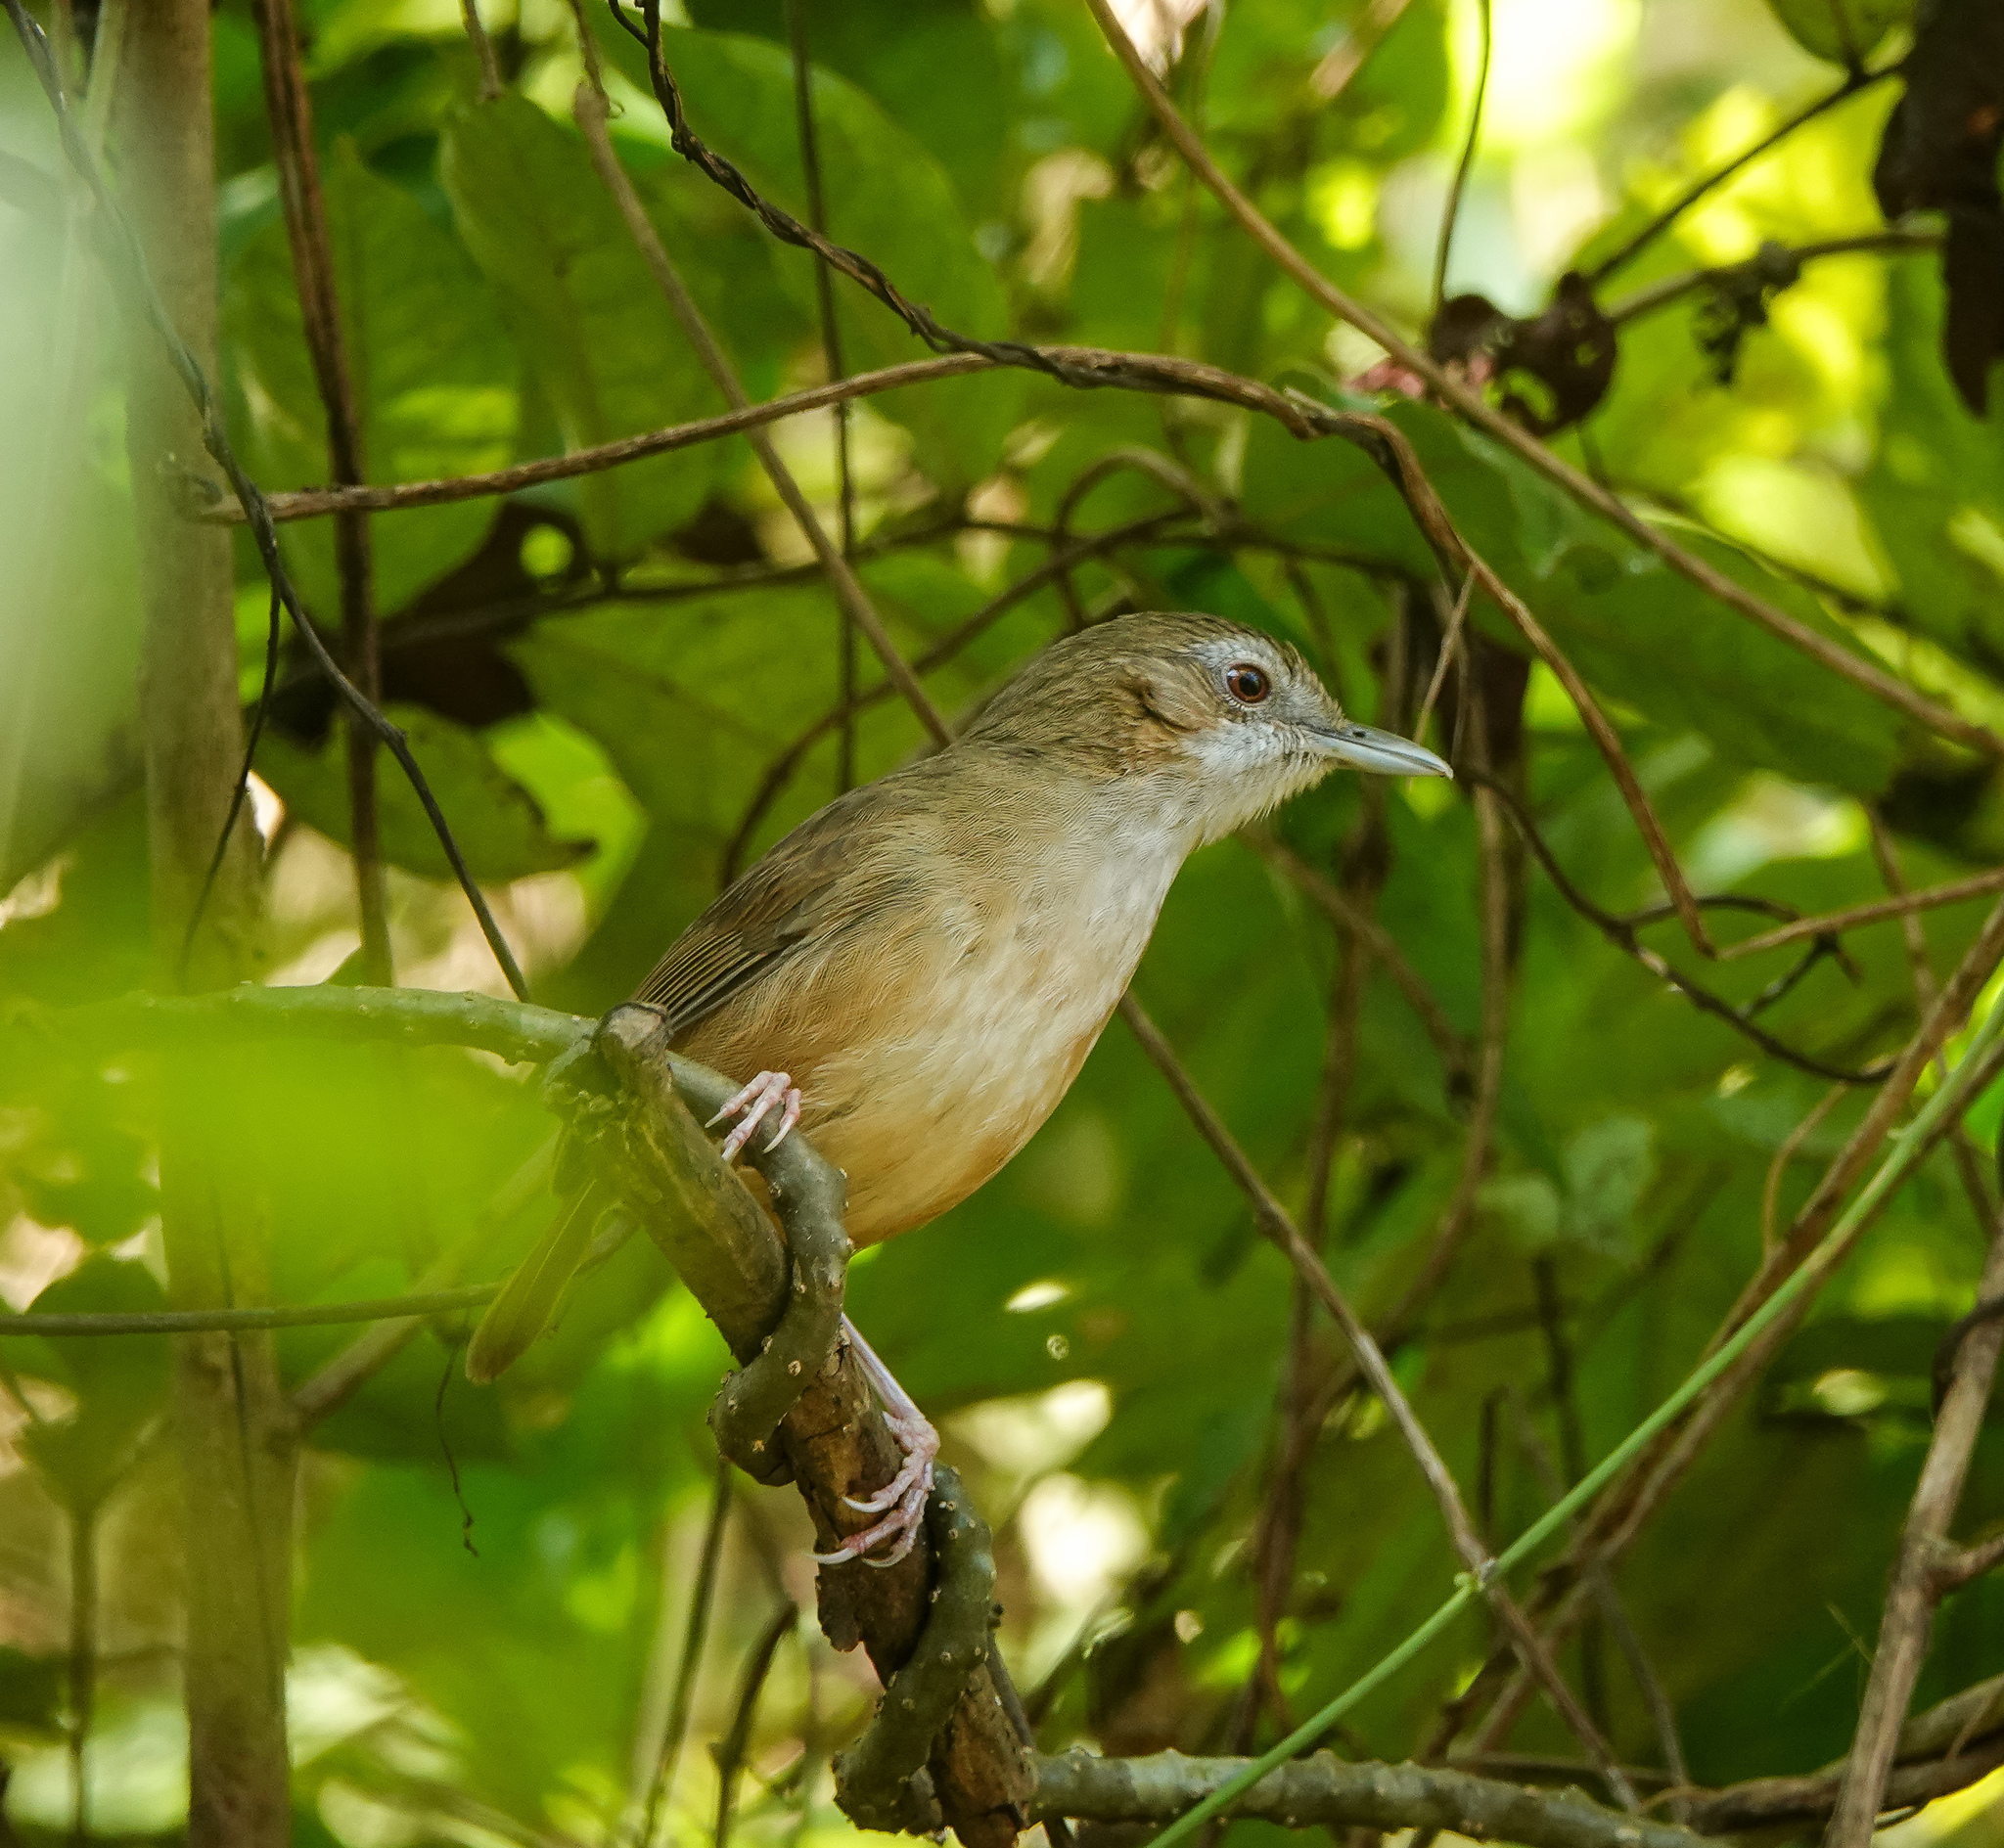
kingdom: Animalia
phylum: Chordata
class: Aves
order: Passeriformes
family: Pellorneidae
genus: Malacocincla
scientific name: Malacocincla abbotti
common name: Abbott's babbler
